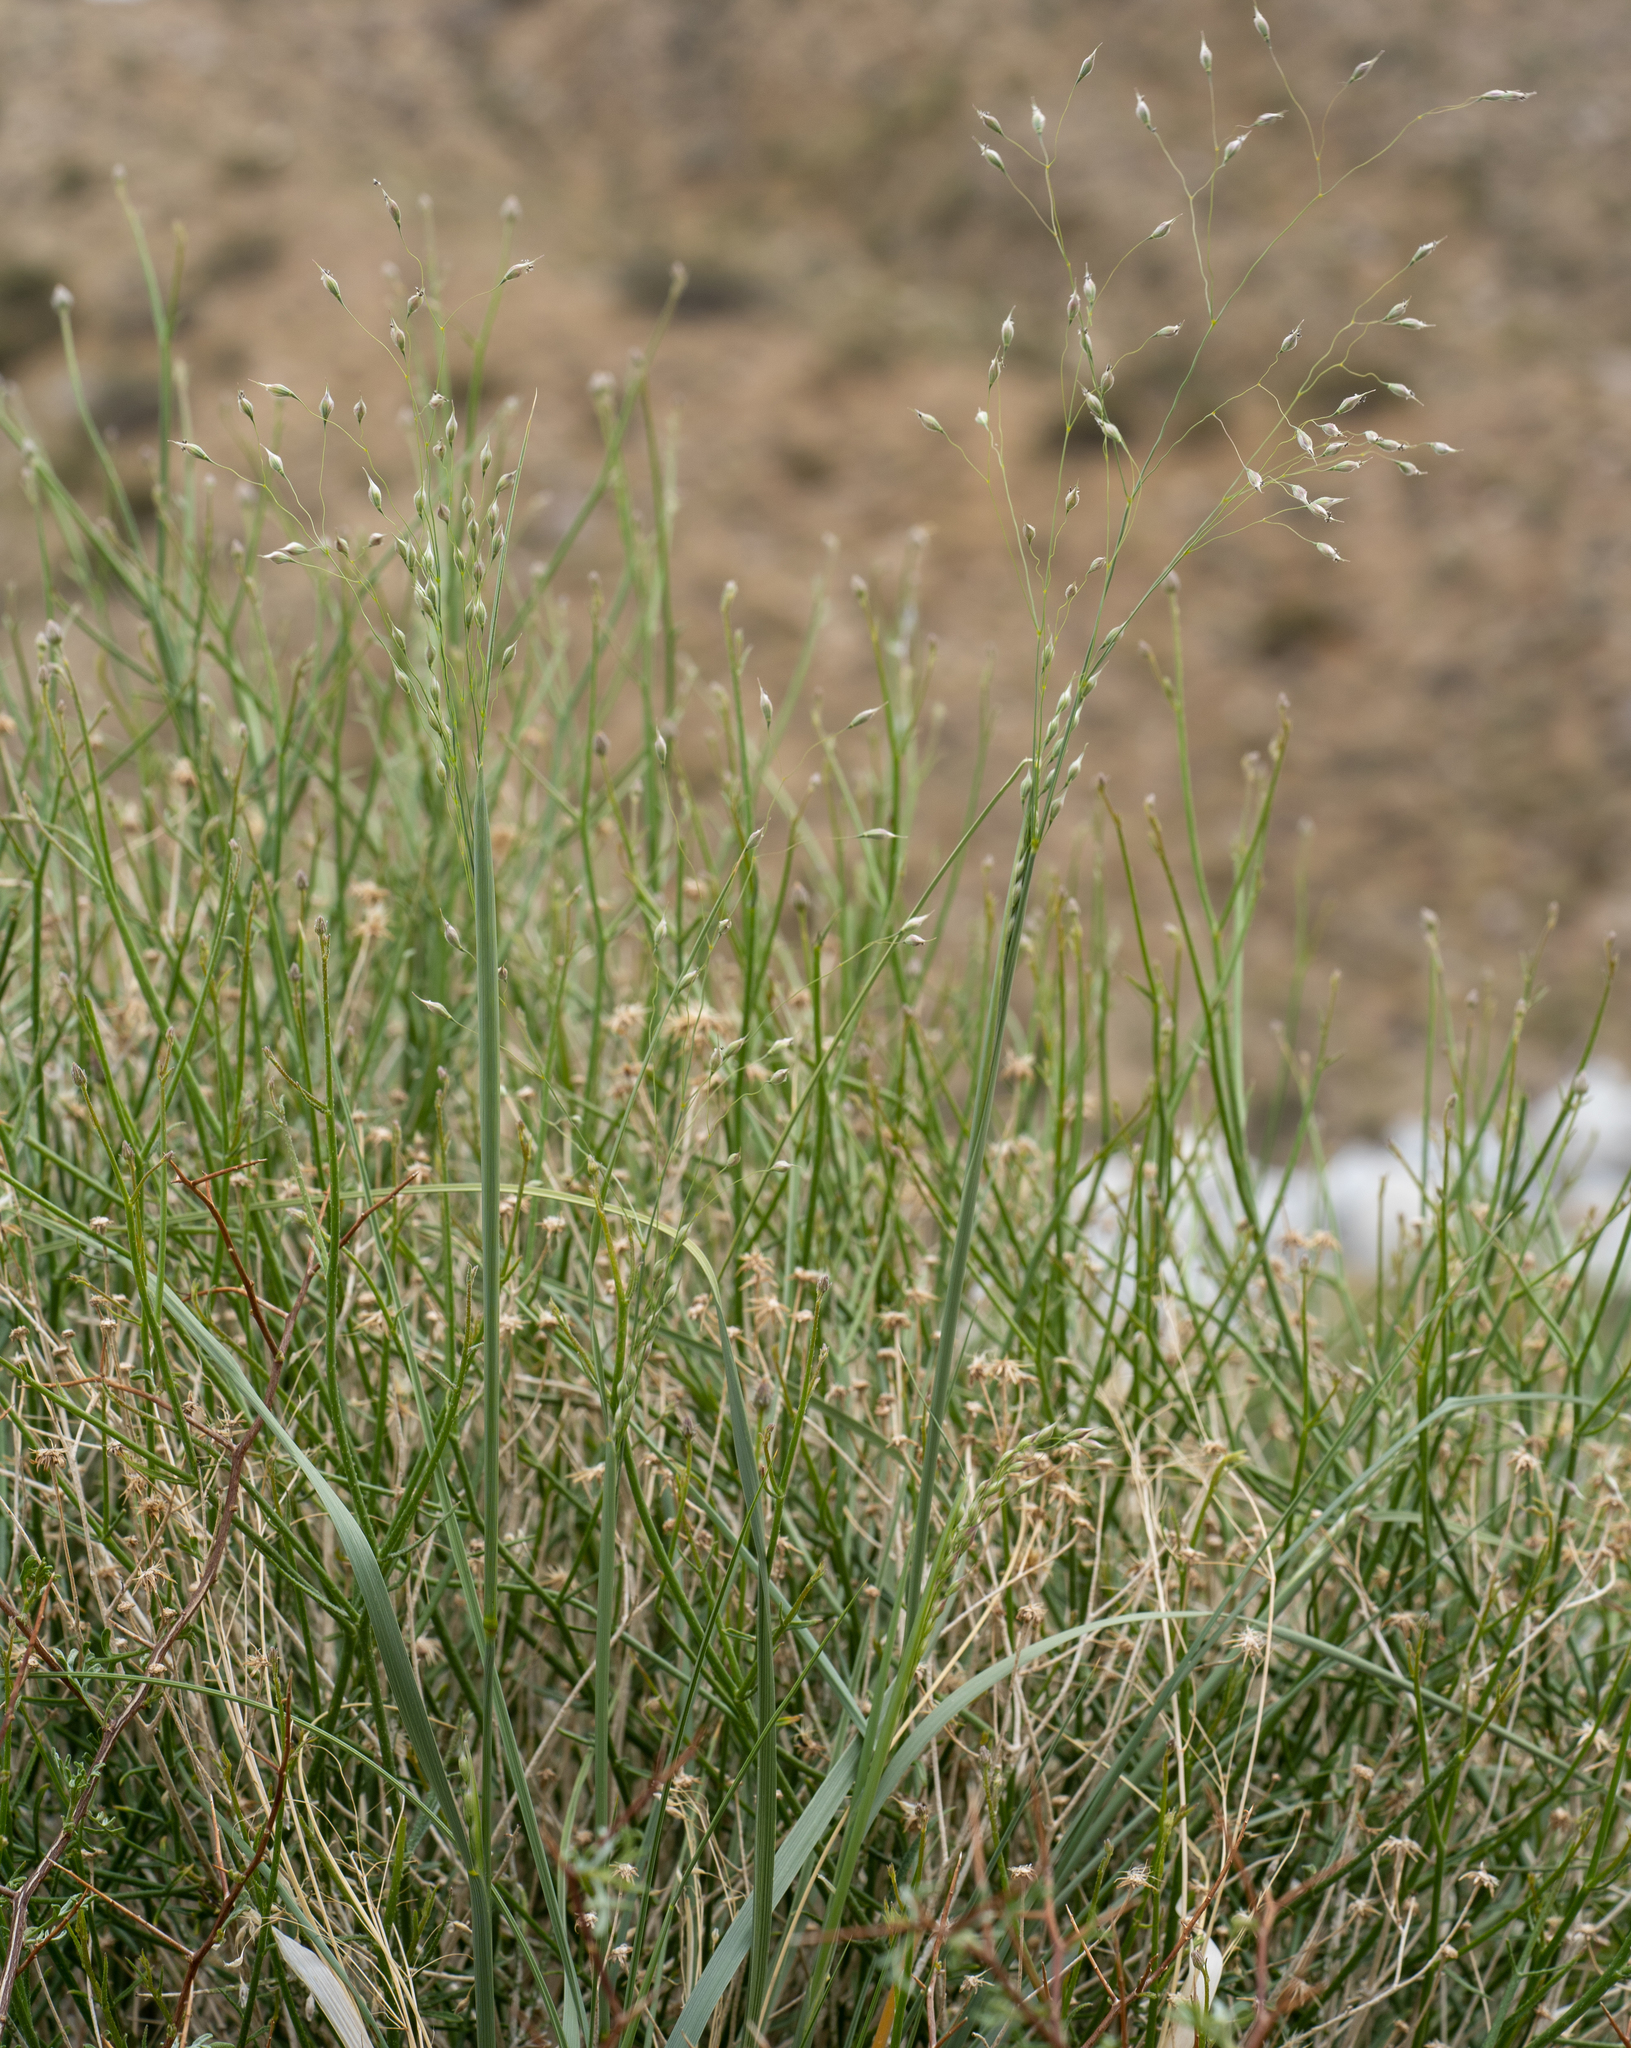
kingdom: Plantae
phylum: Tracheophyta
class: Liliopsida
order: Poales
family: Poaceae
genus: Eriocoma
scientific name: Eriocoma hymenoides
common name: Indian mountain ricegrass
